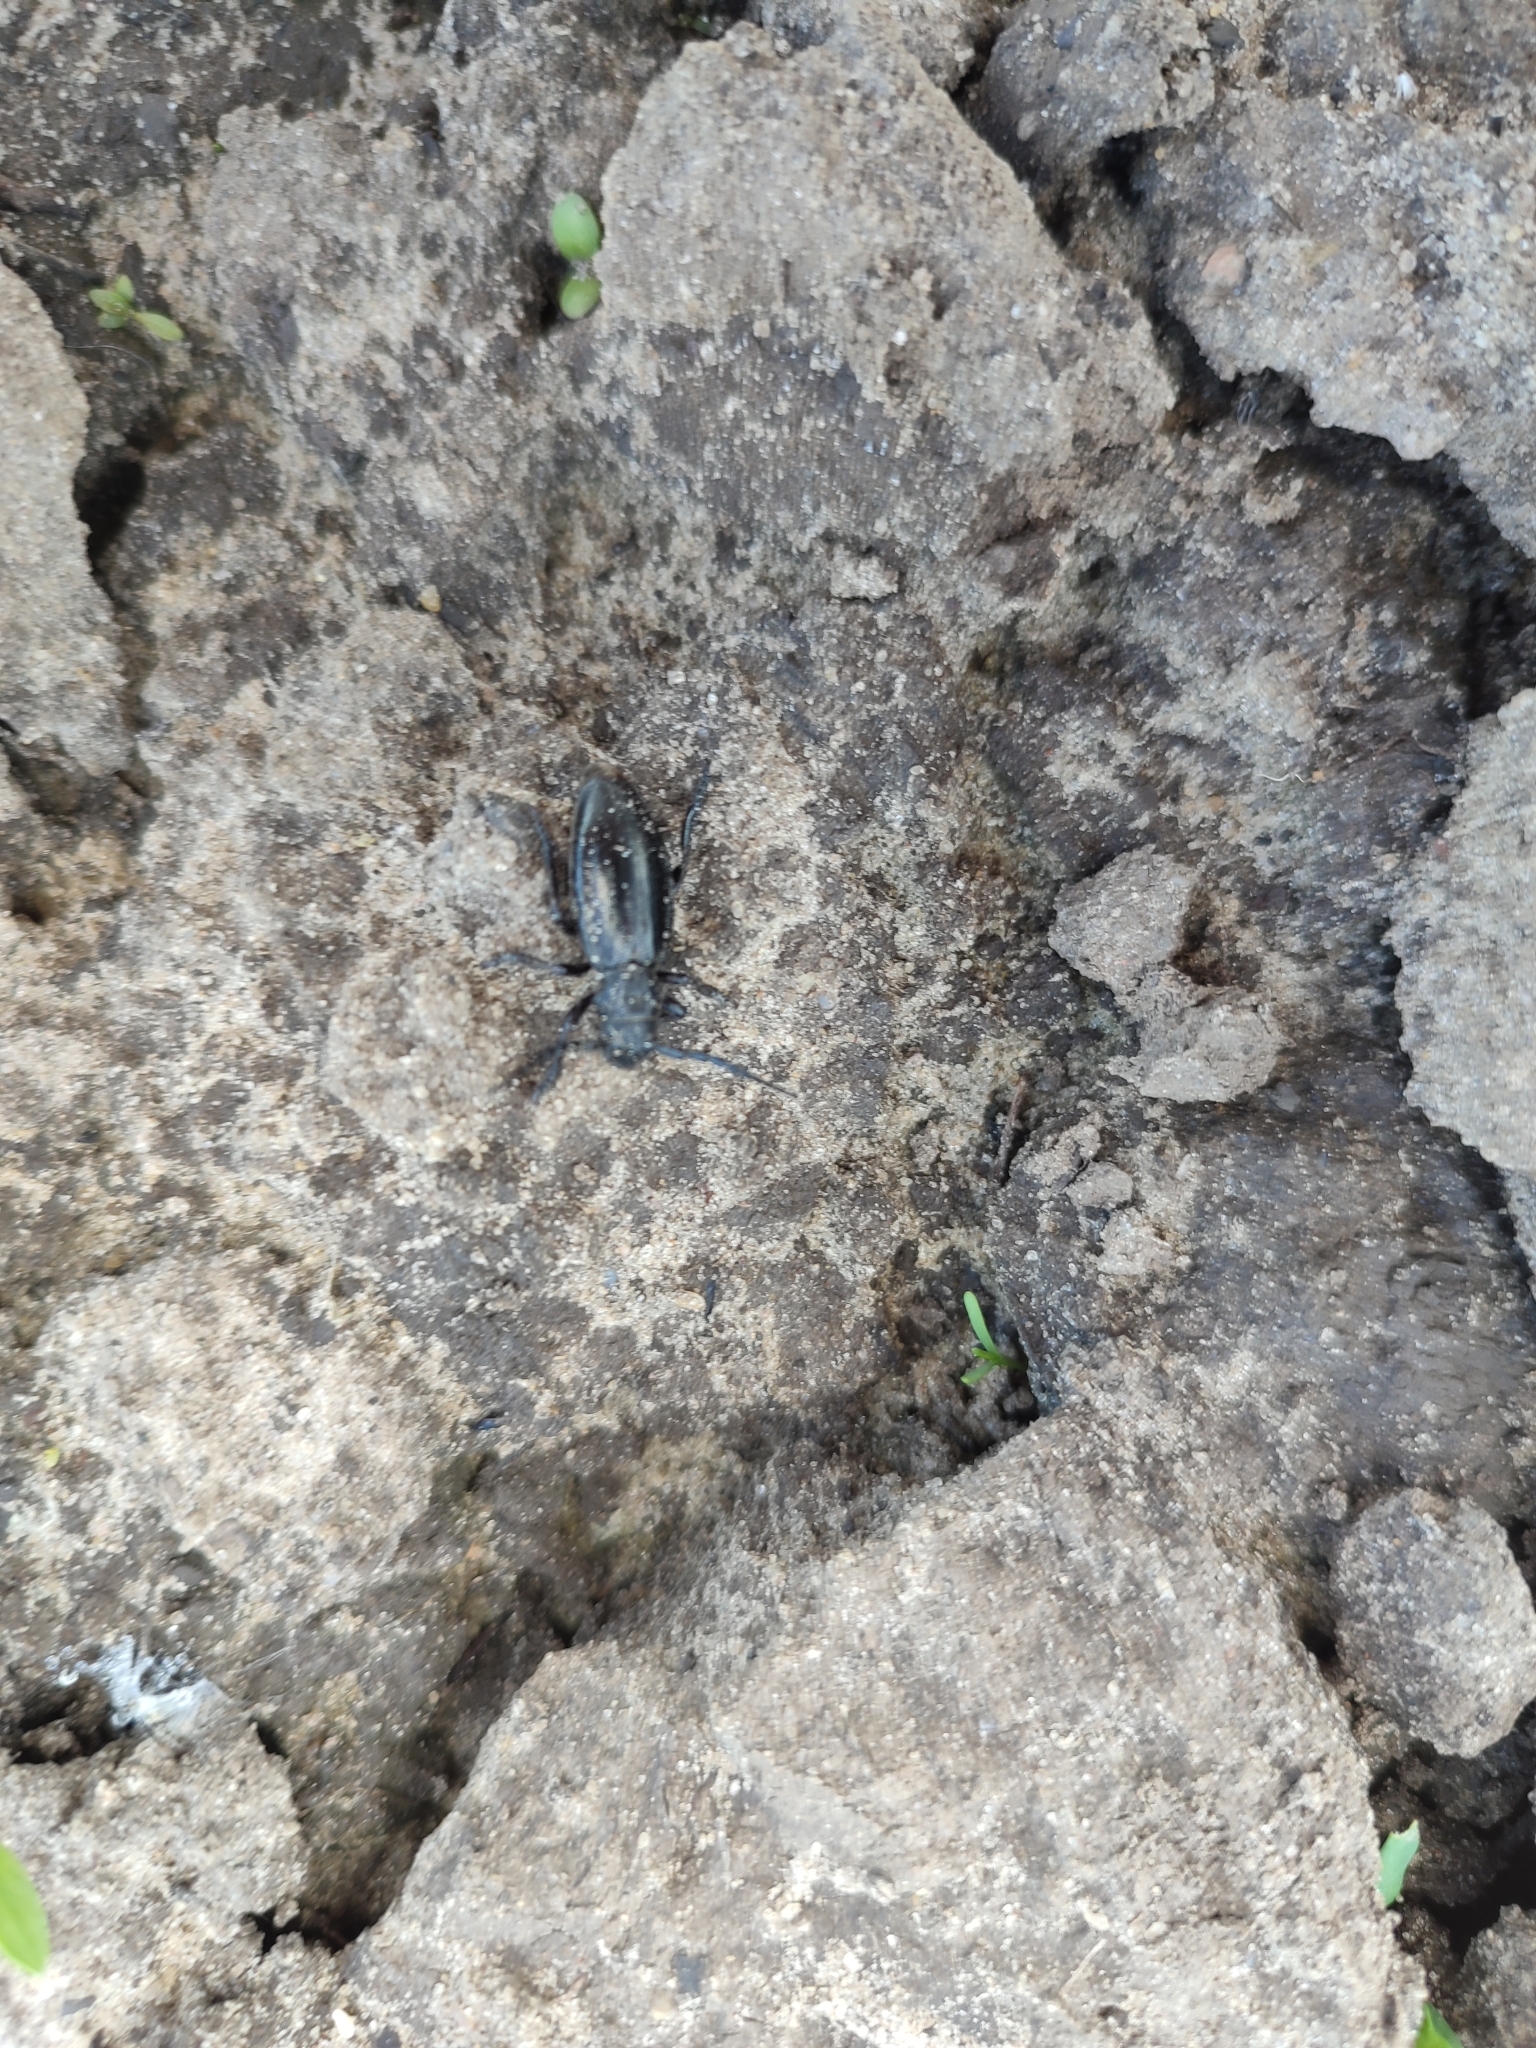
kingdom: Animalia
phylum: Arthropoda
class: Insecta
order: Coleoptera
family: Cerambycidae
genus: Dorcadion
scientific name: Dorcadion carinatum
